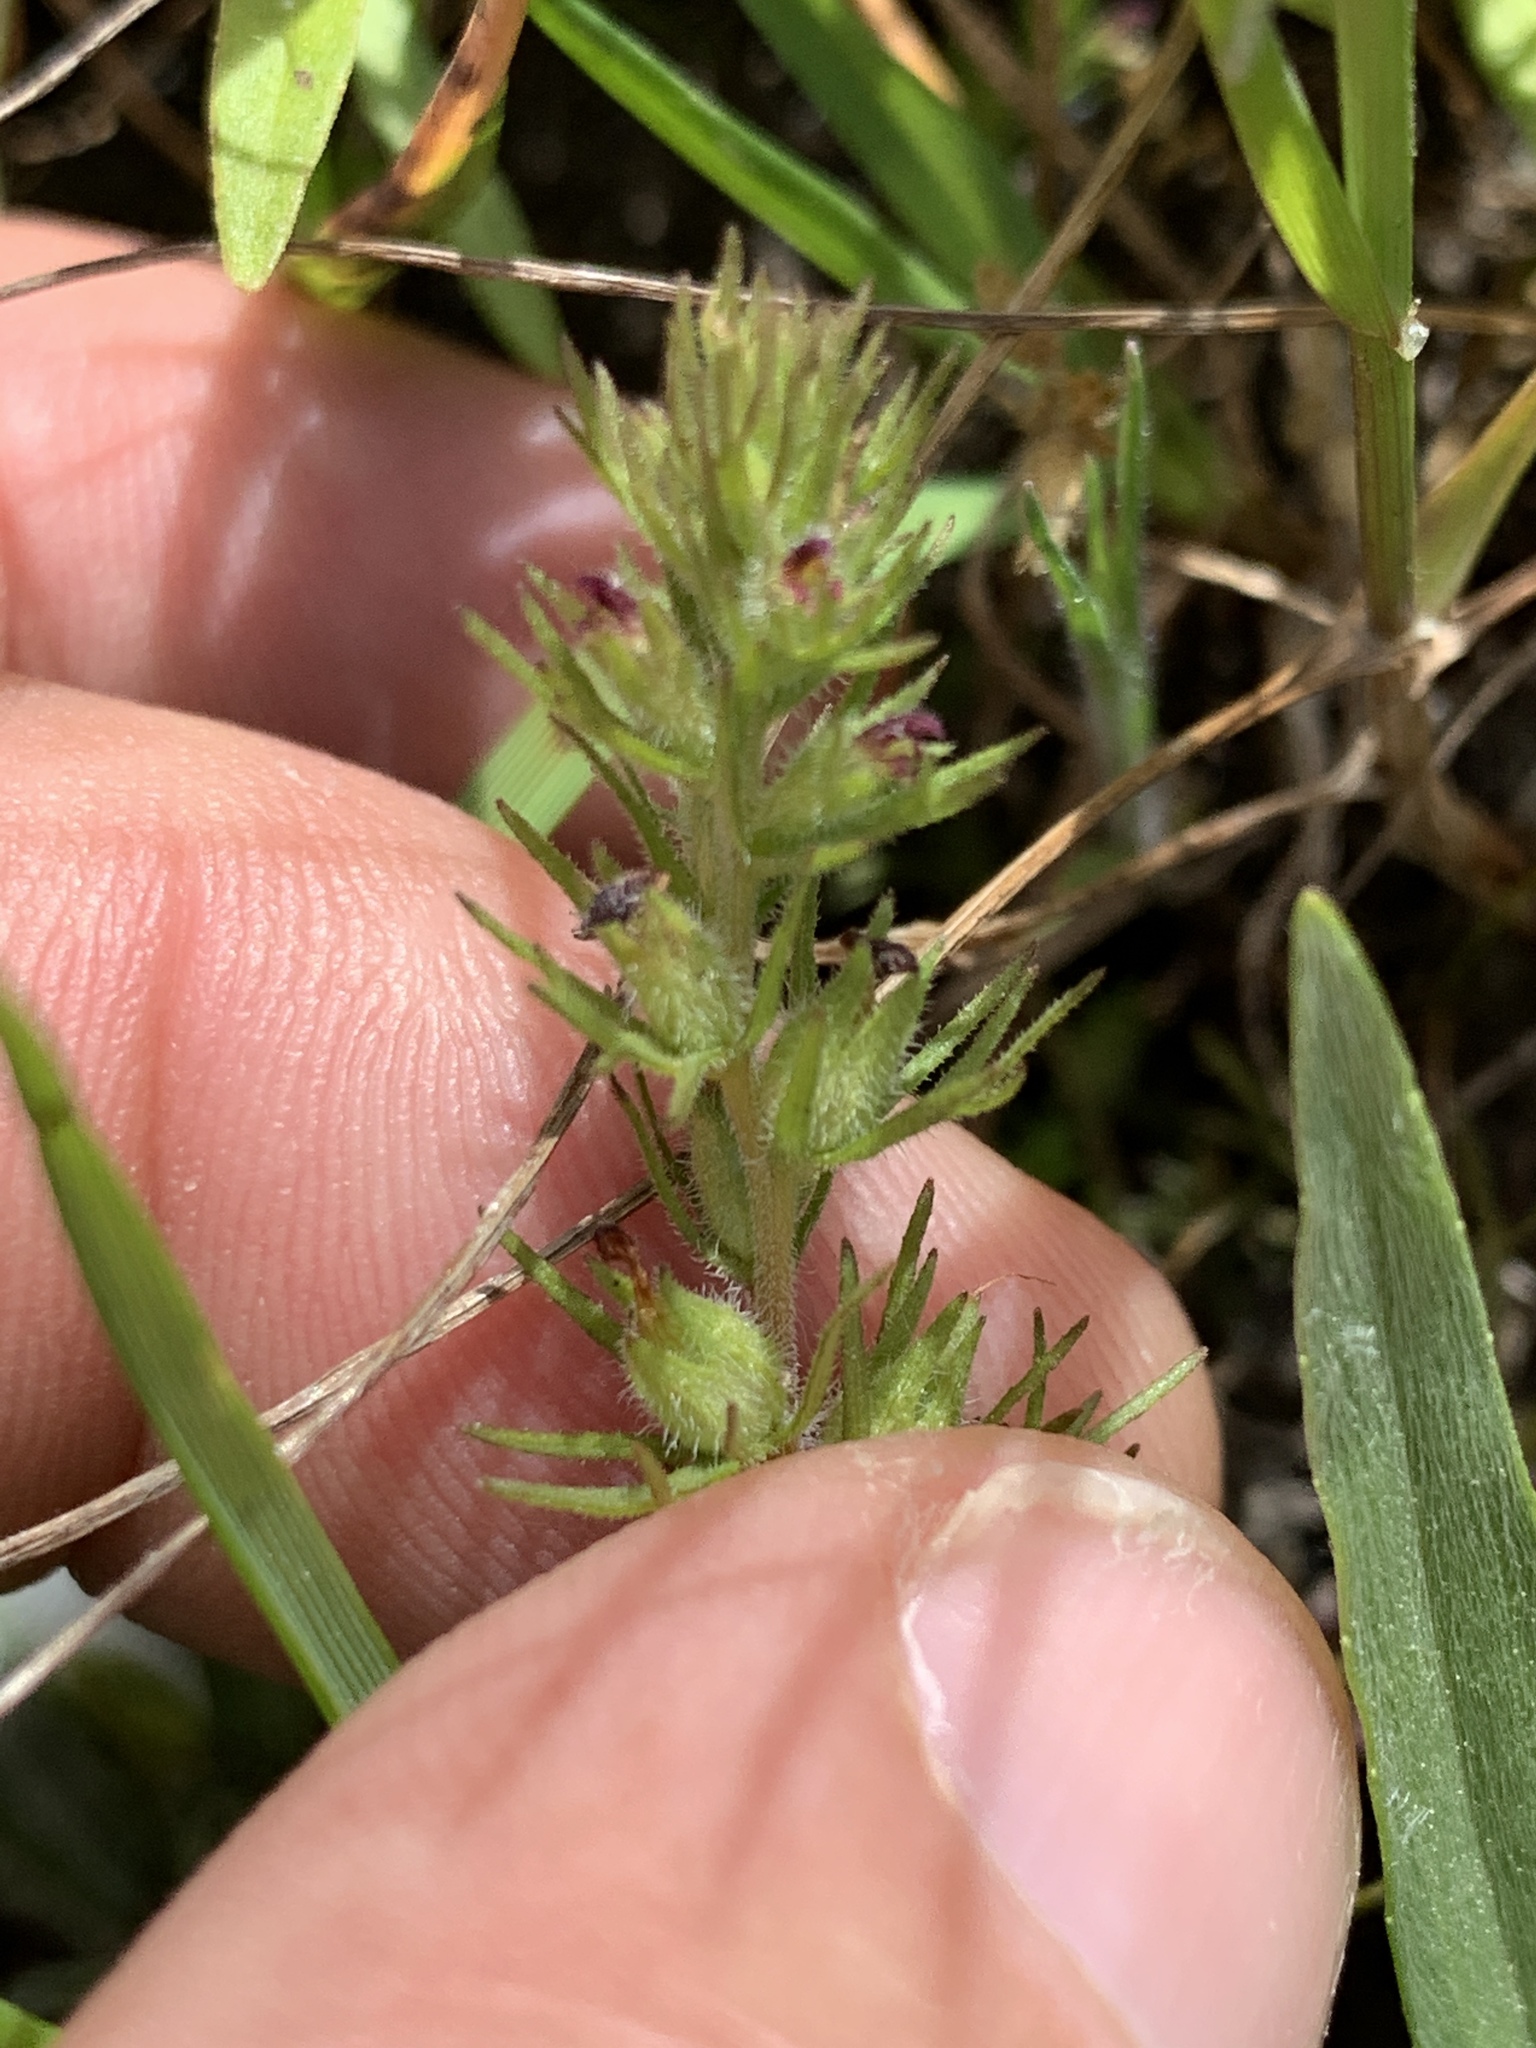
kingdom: Plantae
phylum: Tracheophyta
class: Magnoliopsida
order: Lamiales
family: Orobanchaceae
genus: Triphysaria
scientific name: Triphysaria pusilla
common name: Dwarf false owl-clover
